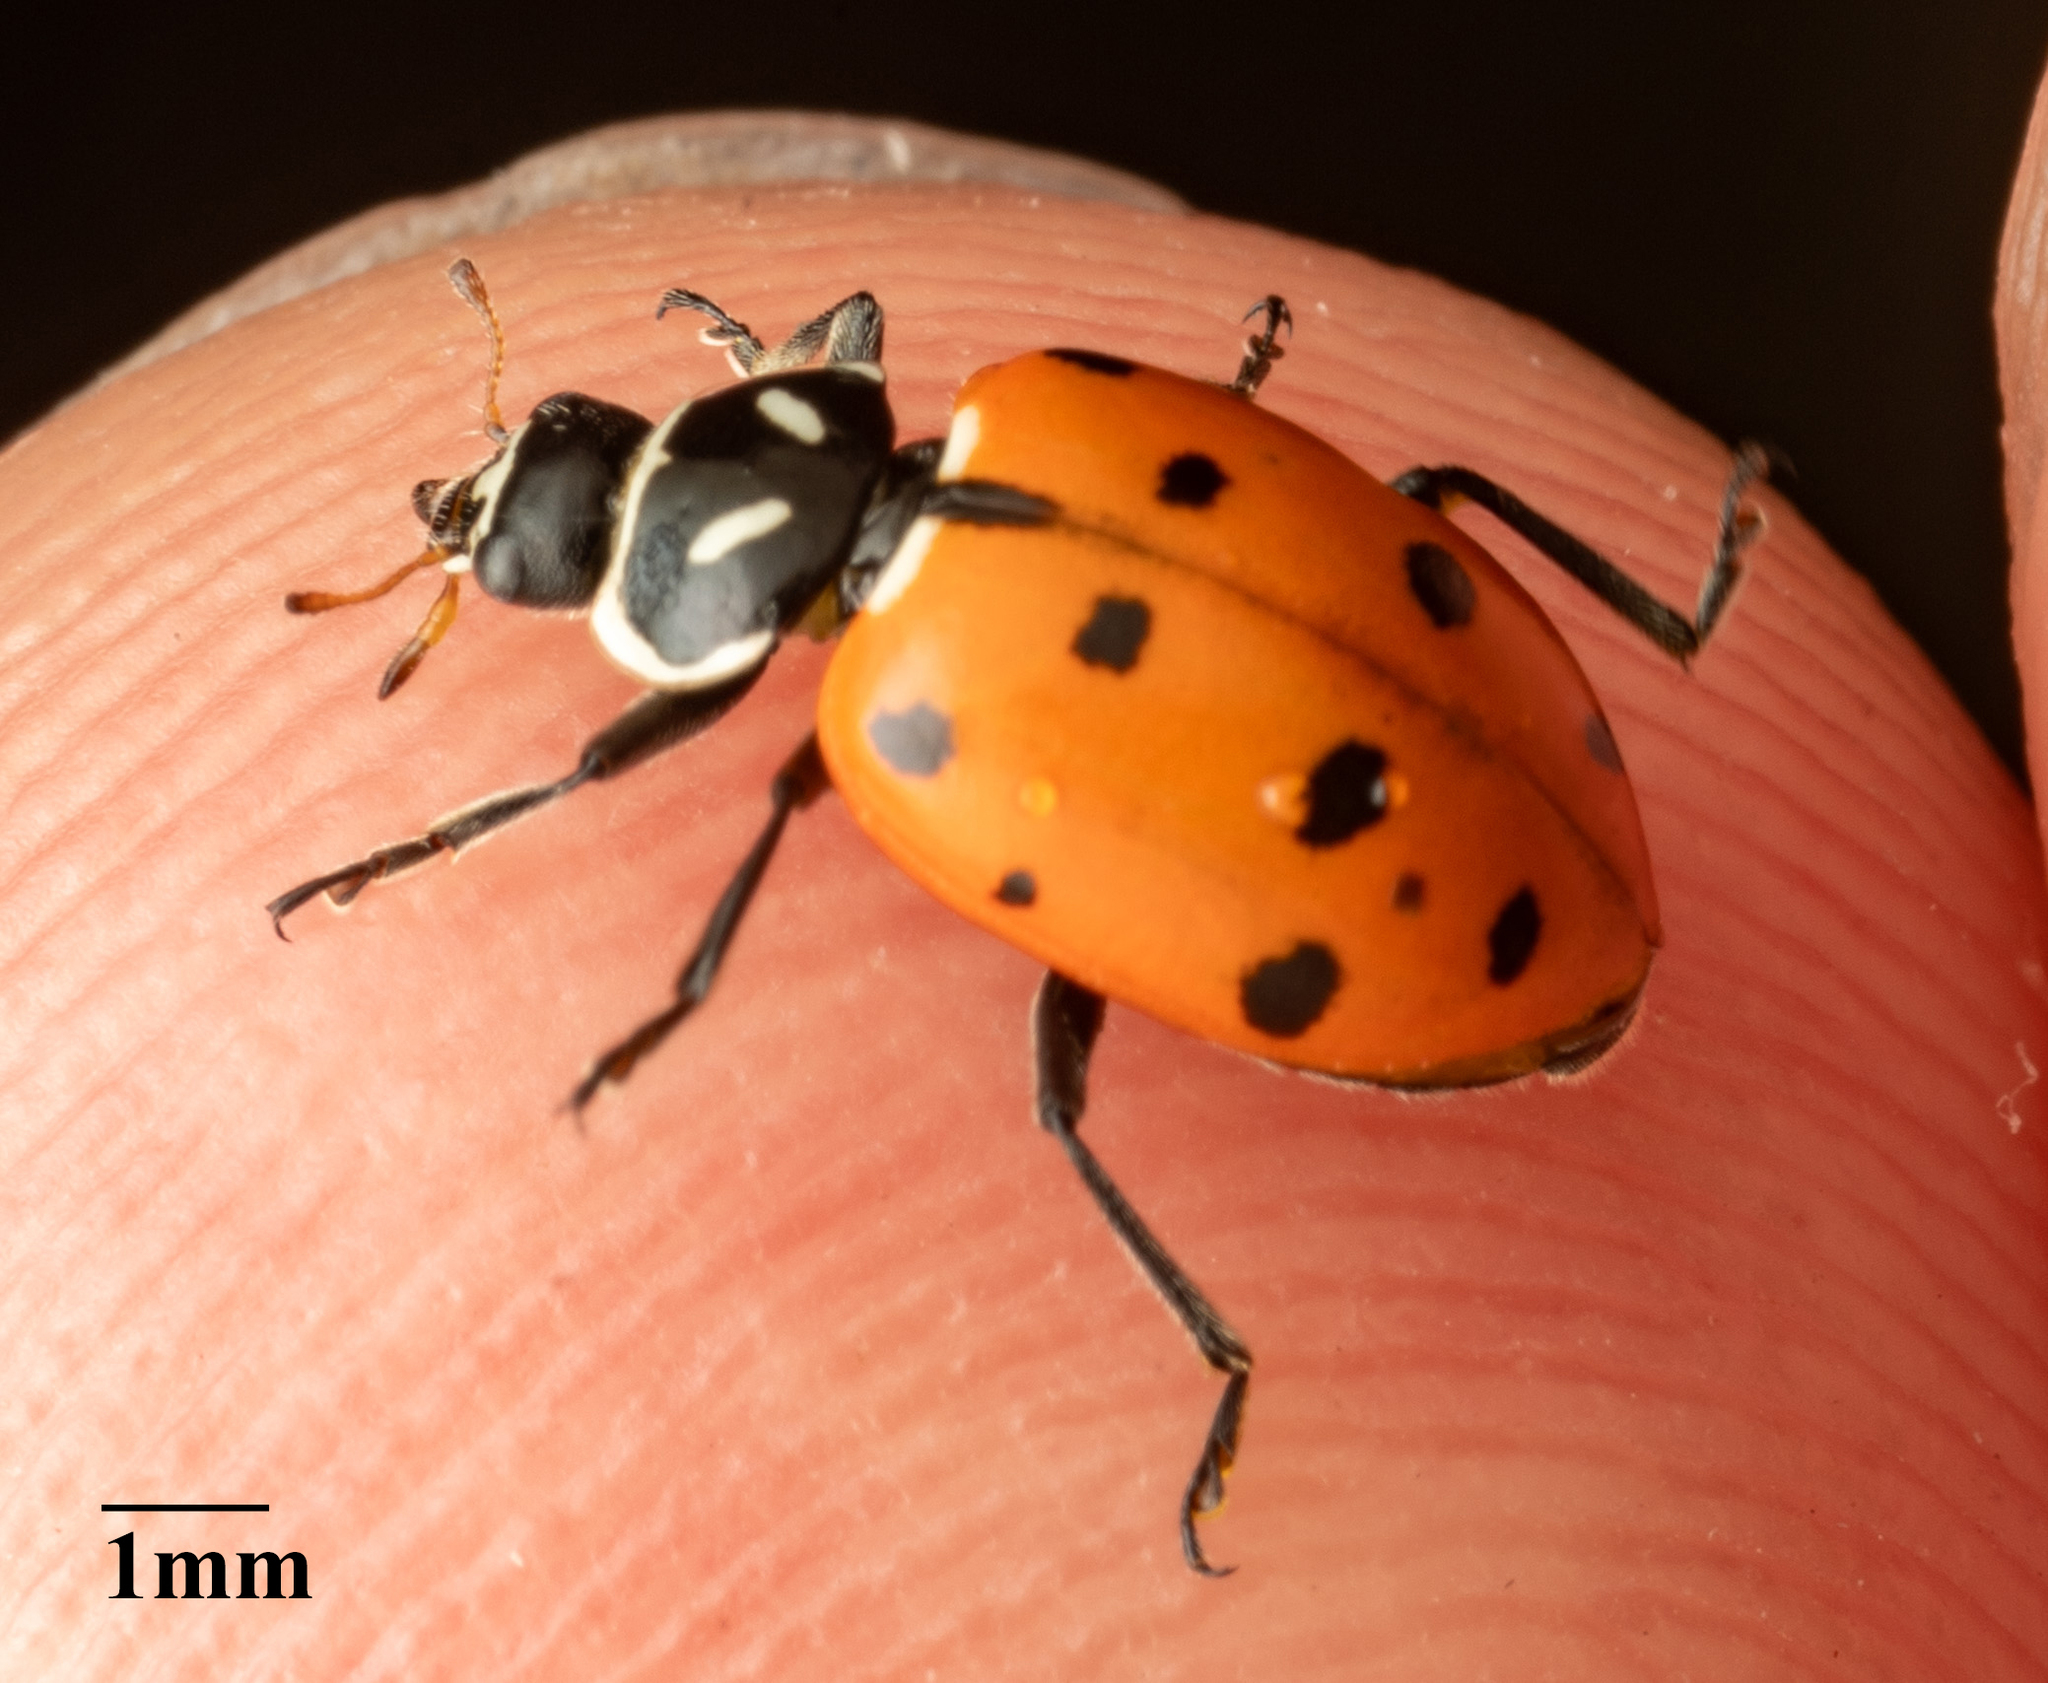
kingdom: Animalia
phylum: Arthropoda
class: Insecta
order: Coleoptera
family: Coccinellidae
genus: Hippodamia
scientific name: Hippodamia convergens
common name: Convergent lady beetle
